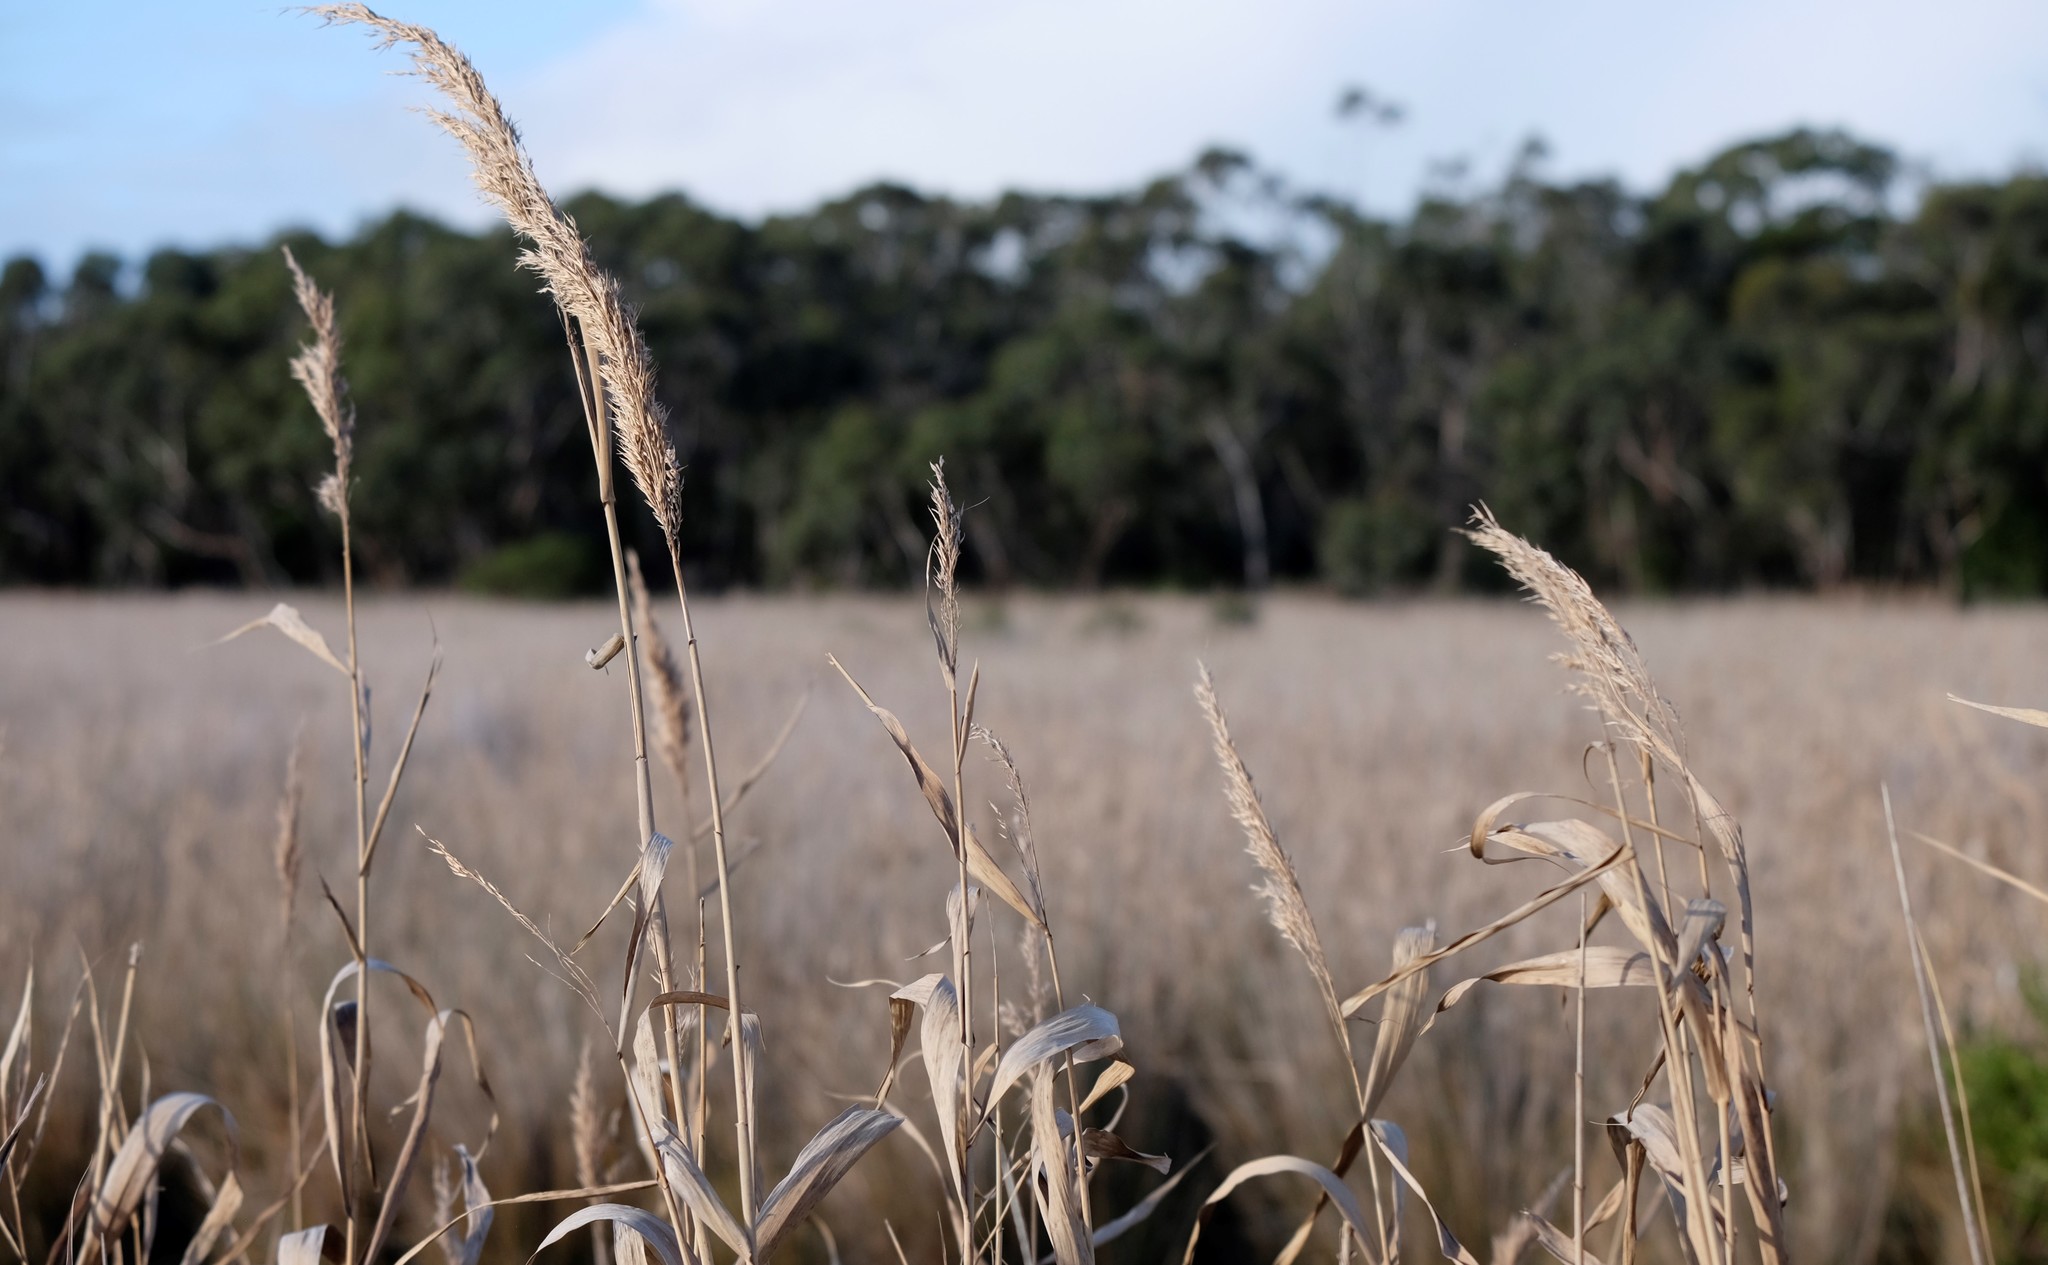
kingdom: Plantae
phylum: Tracheophyta
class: Liliopsida
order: Poales
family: Poaceae
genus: Phragmites
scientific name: Phragmites australis
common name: Common reed
